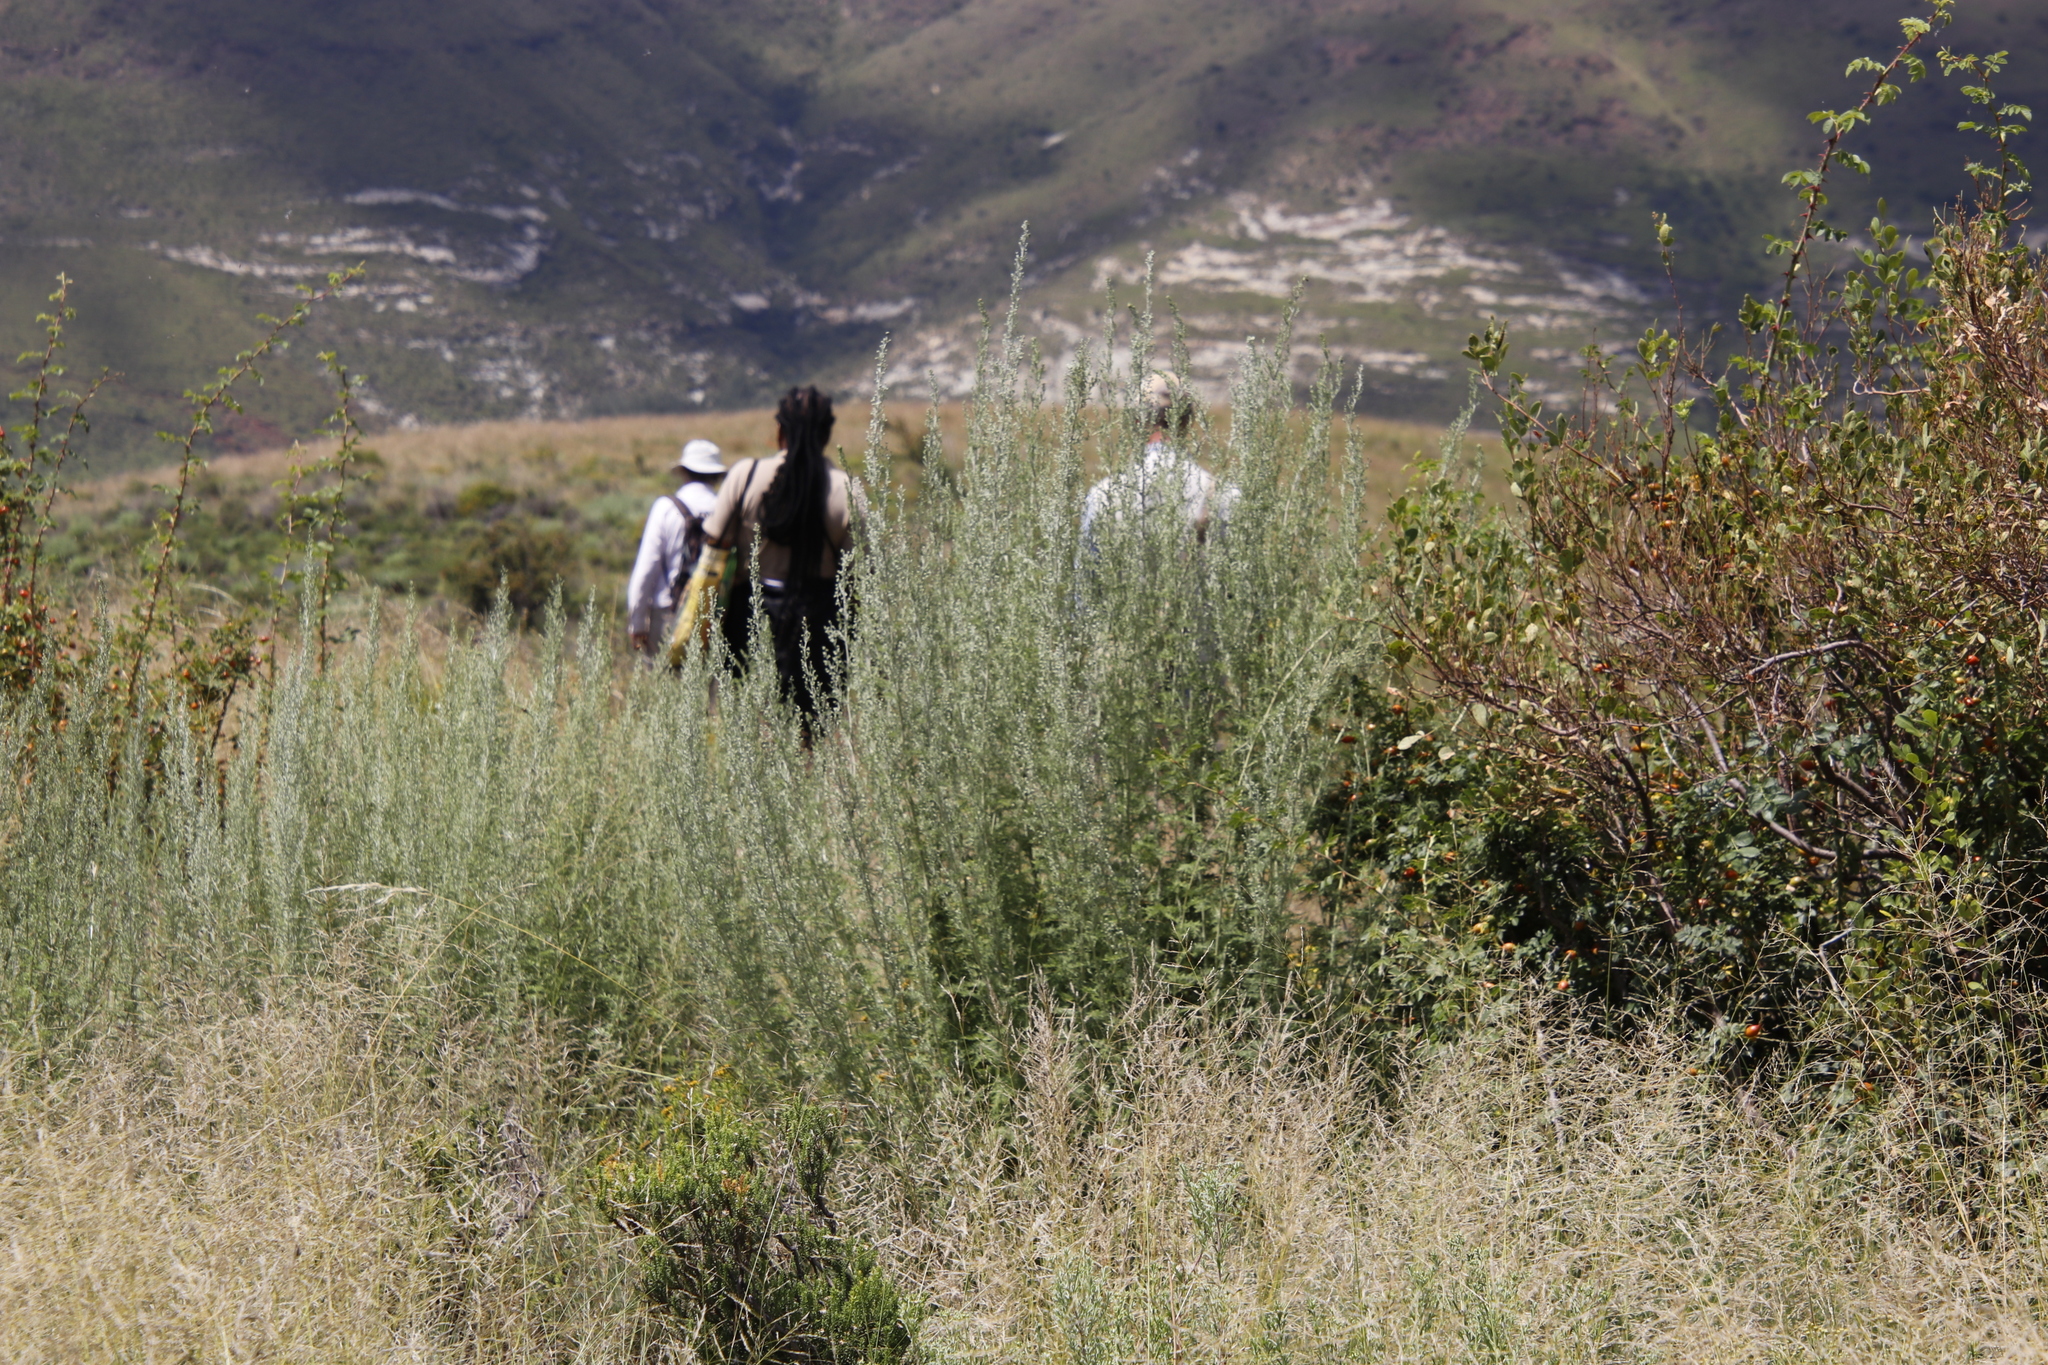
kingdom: Plantae
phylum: Tracheophyta
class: Magnoliopsida
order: Asterales
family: Asteraceae
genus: Artemisia
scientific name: Artemisia afra
